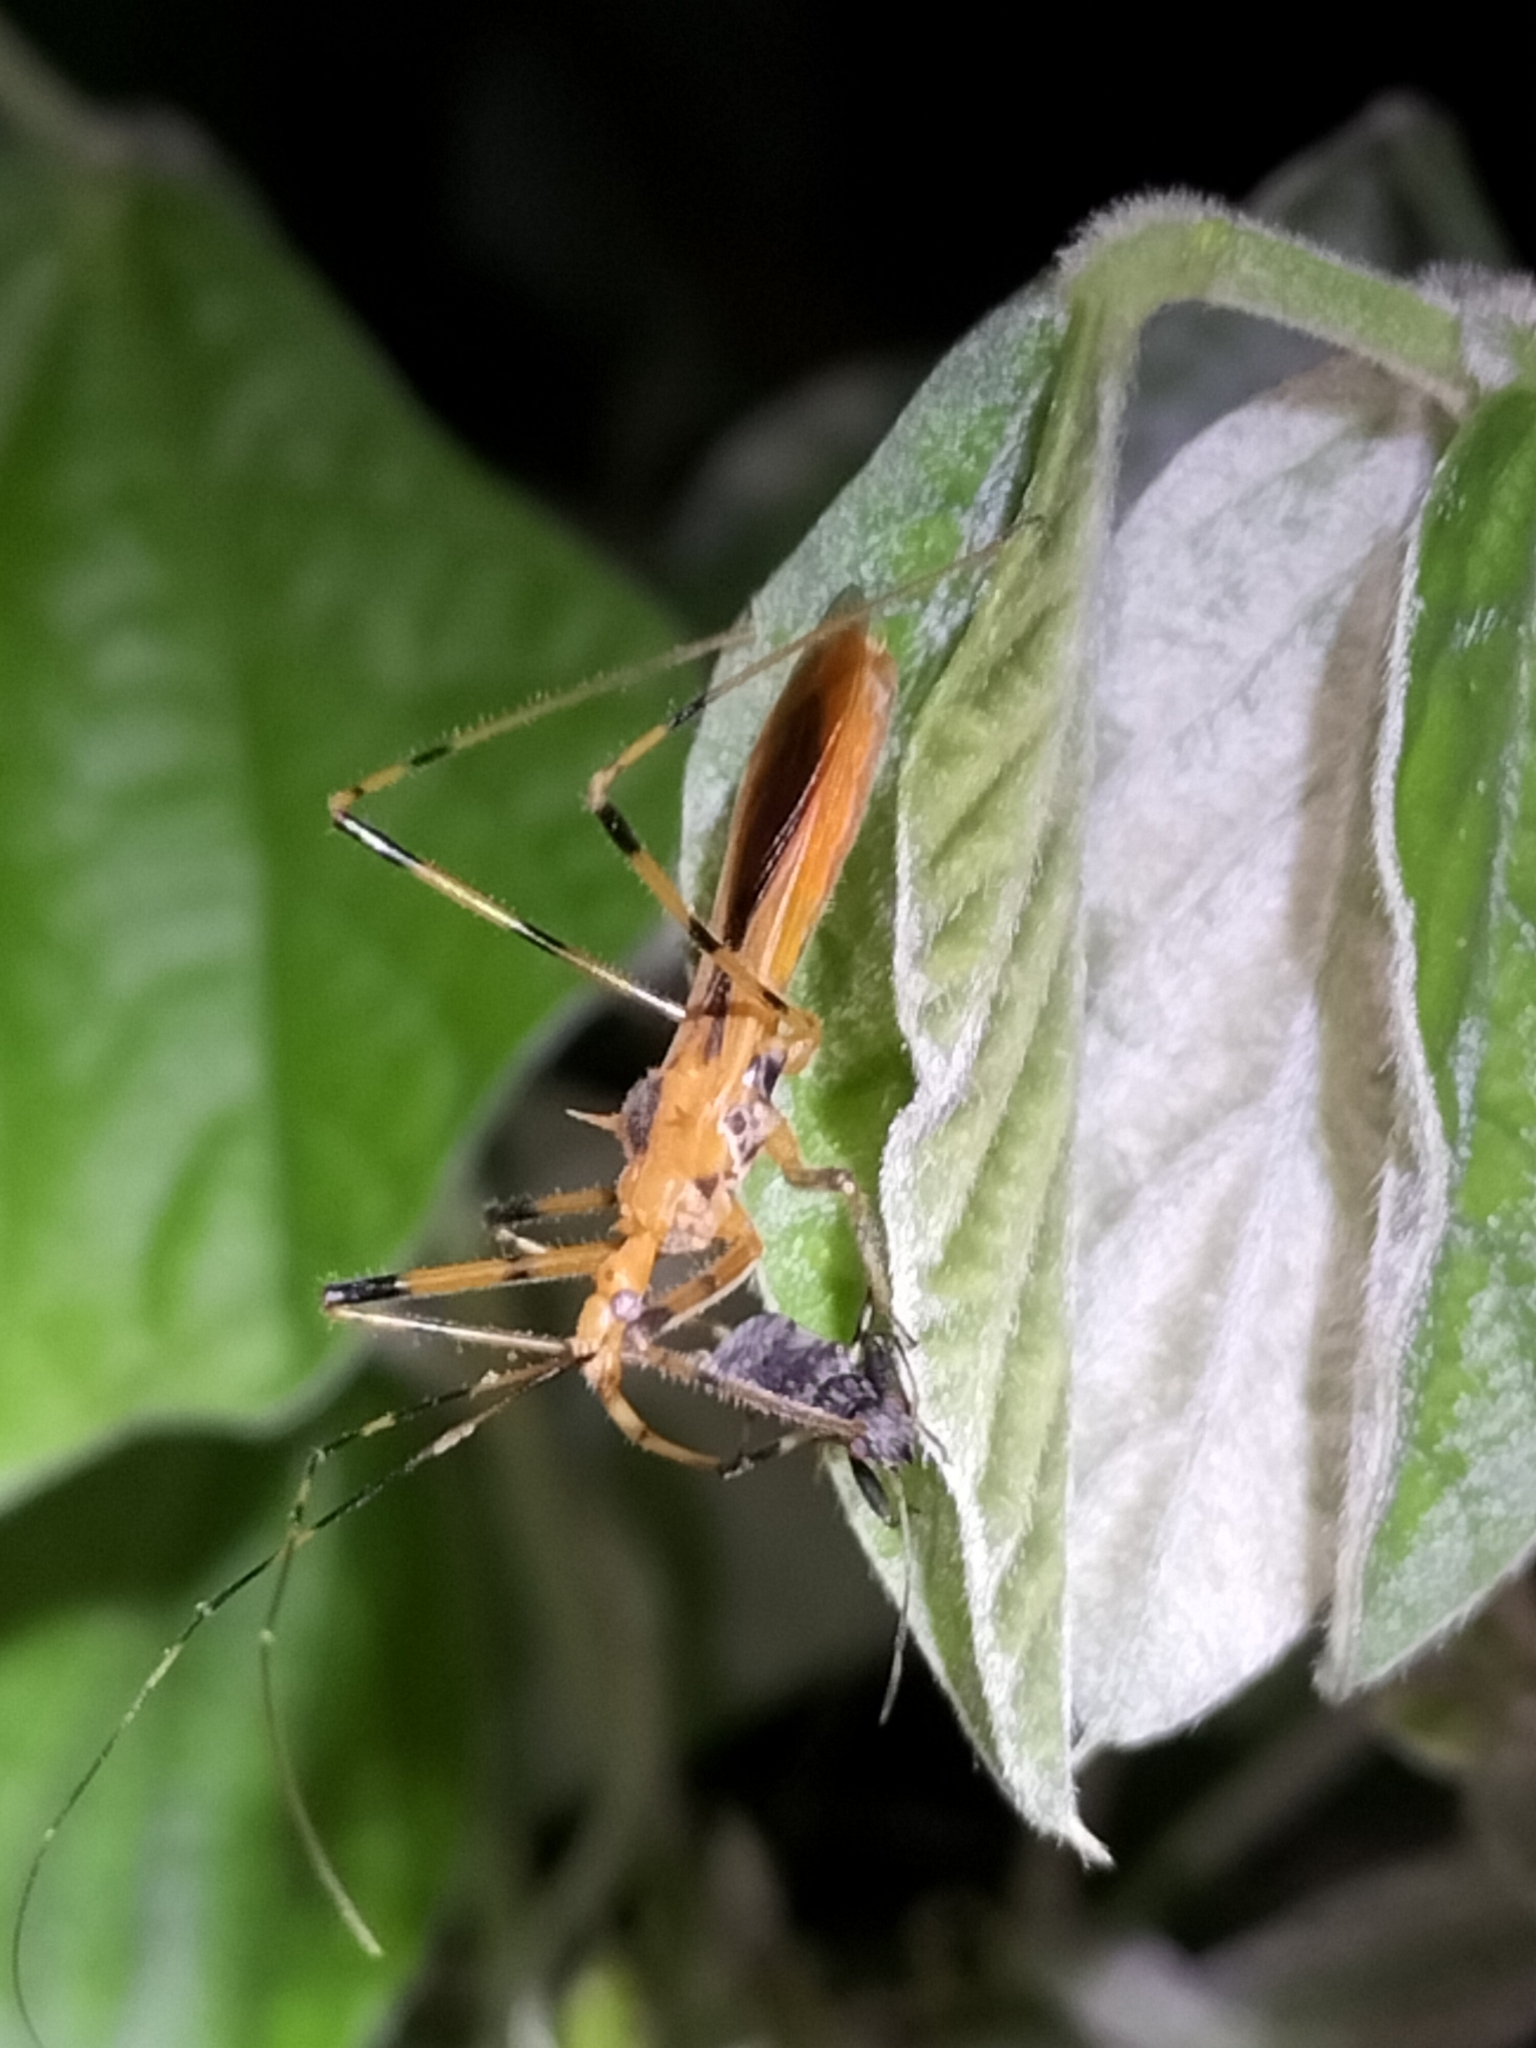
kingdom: Animalia
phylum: Arthropoda
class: Insecta
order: Hemiptera
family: Reduviidae
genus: Euagoras
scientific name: Euagoras dorycus
